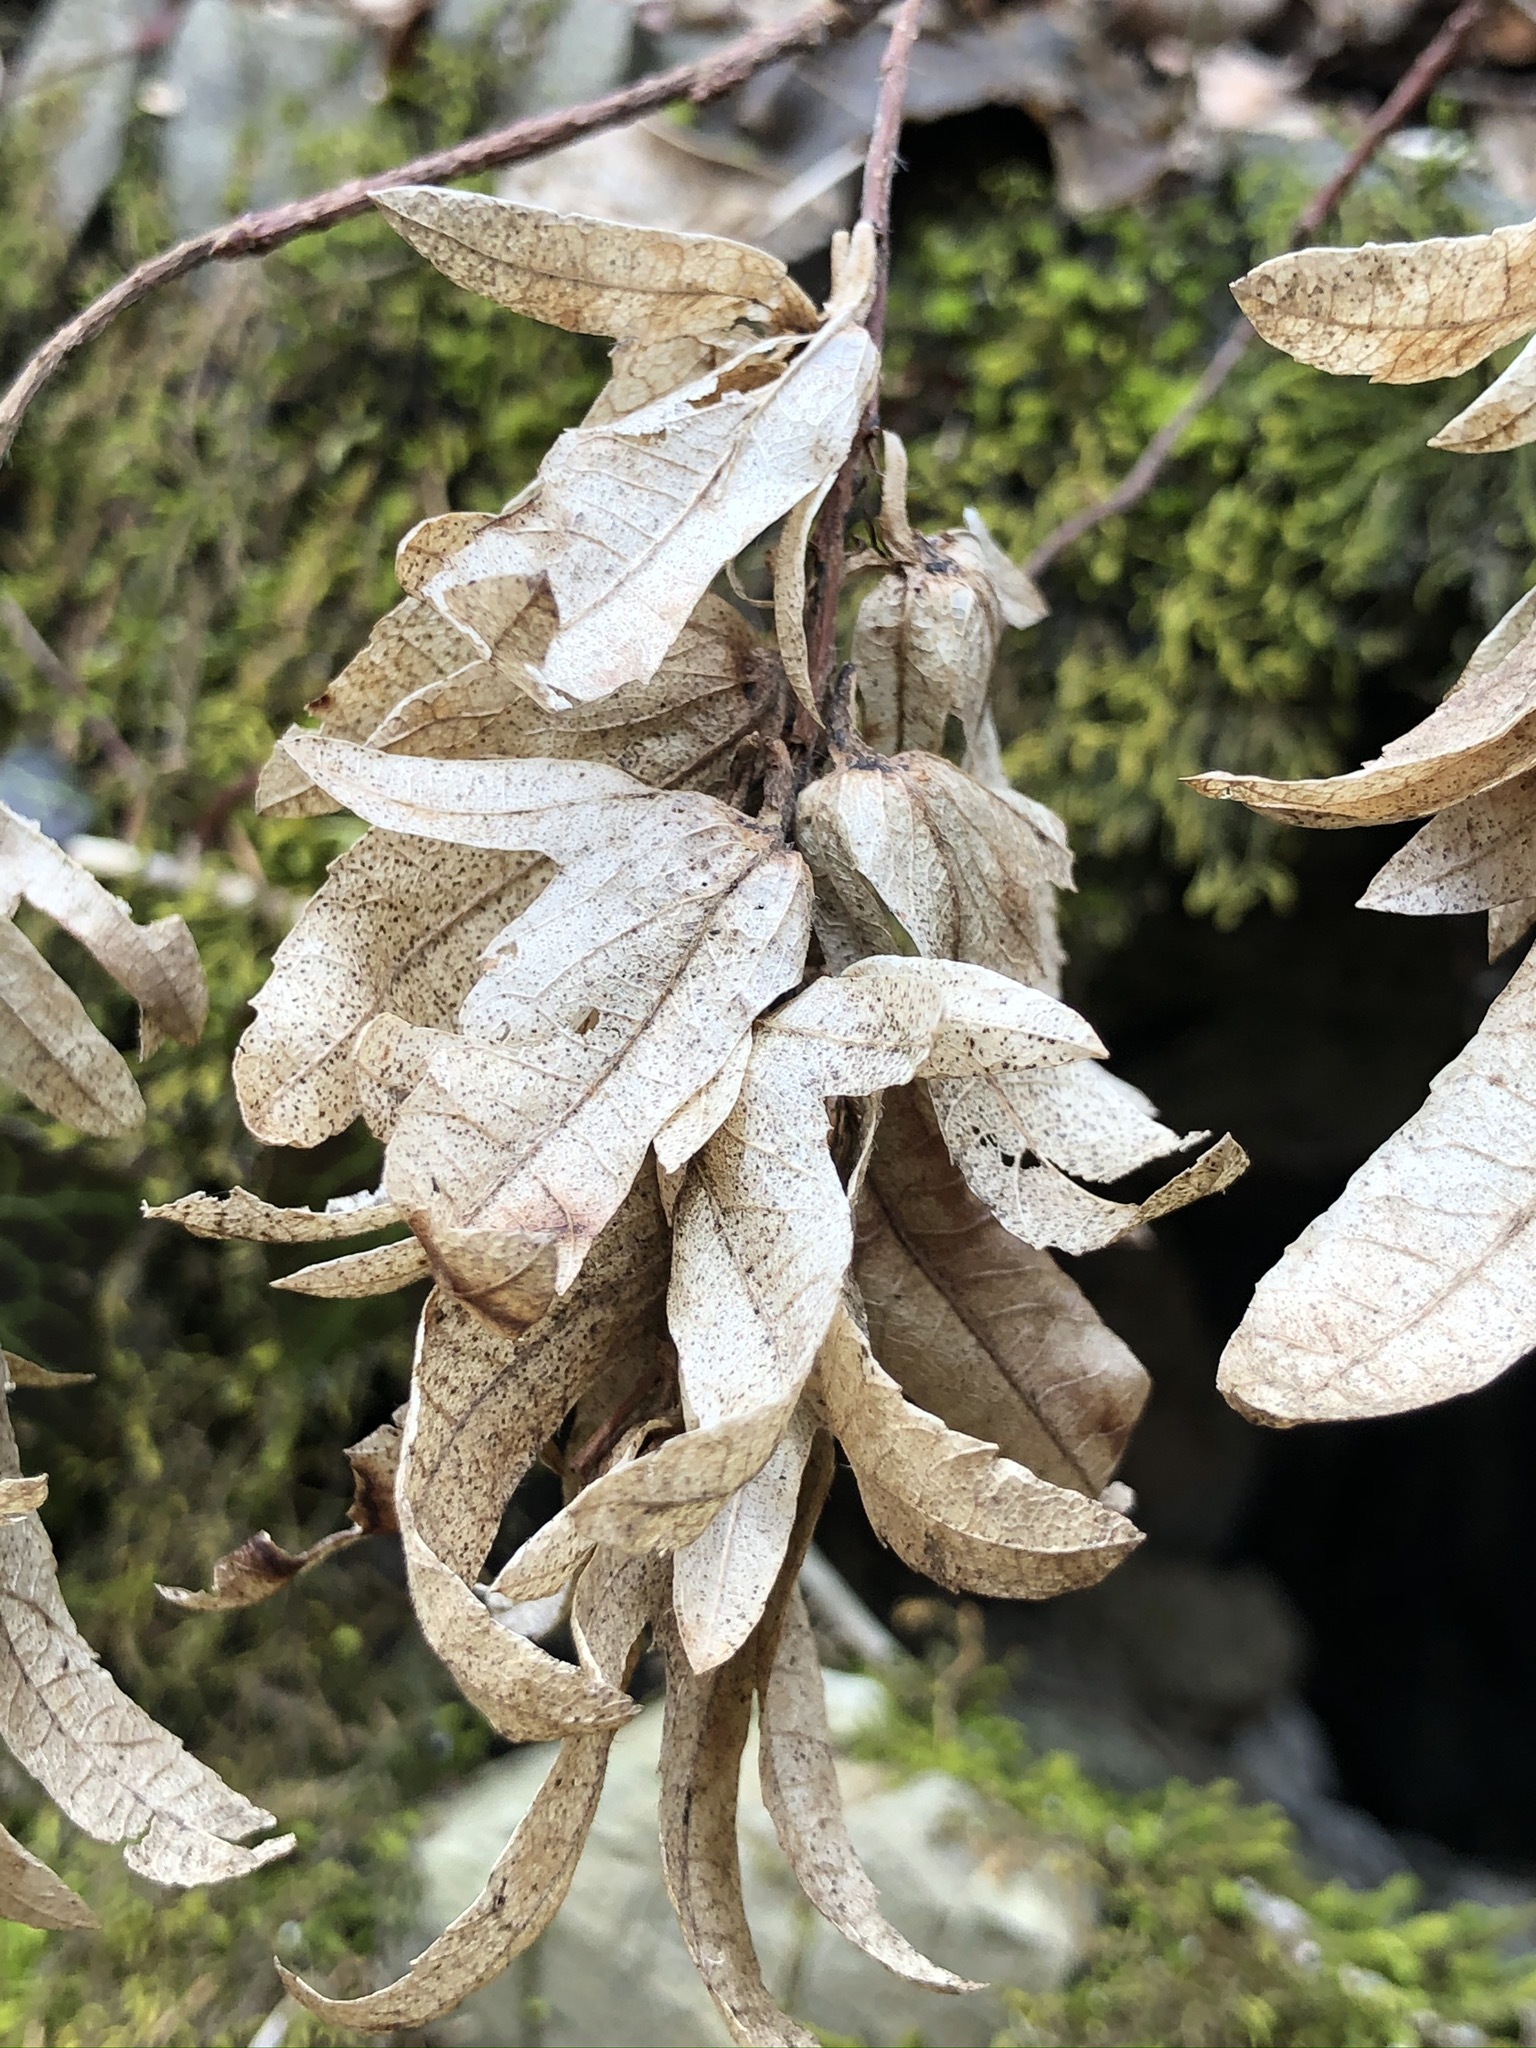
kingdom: Plantae
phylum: Tracheophyta
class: Magnoliopsida
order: Fagales
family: Betulaceae
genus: Carpinus
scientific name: Carpinus betulus
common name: Hornbeam
